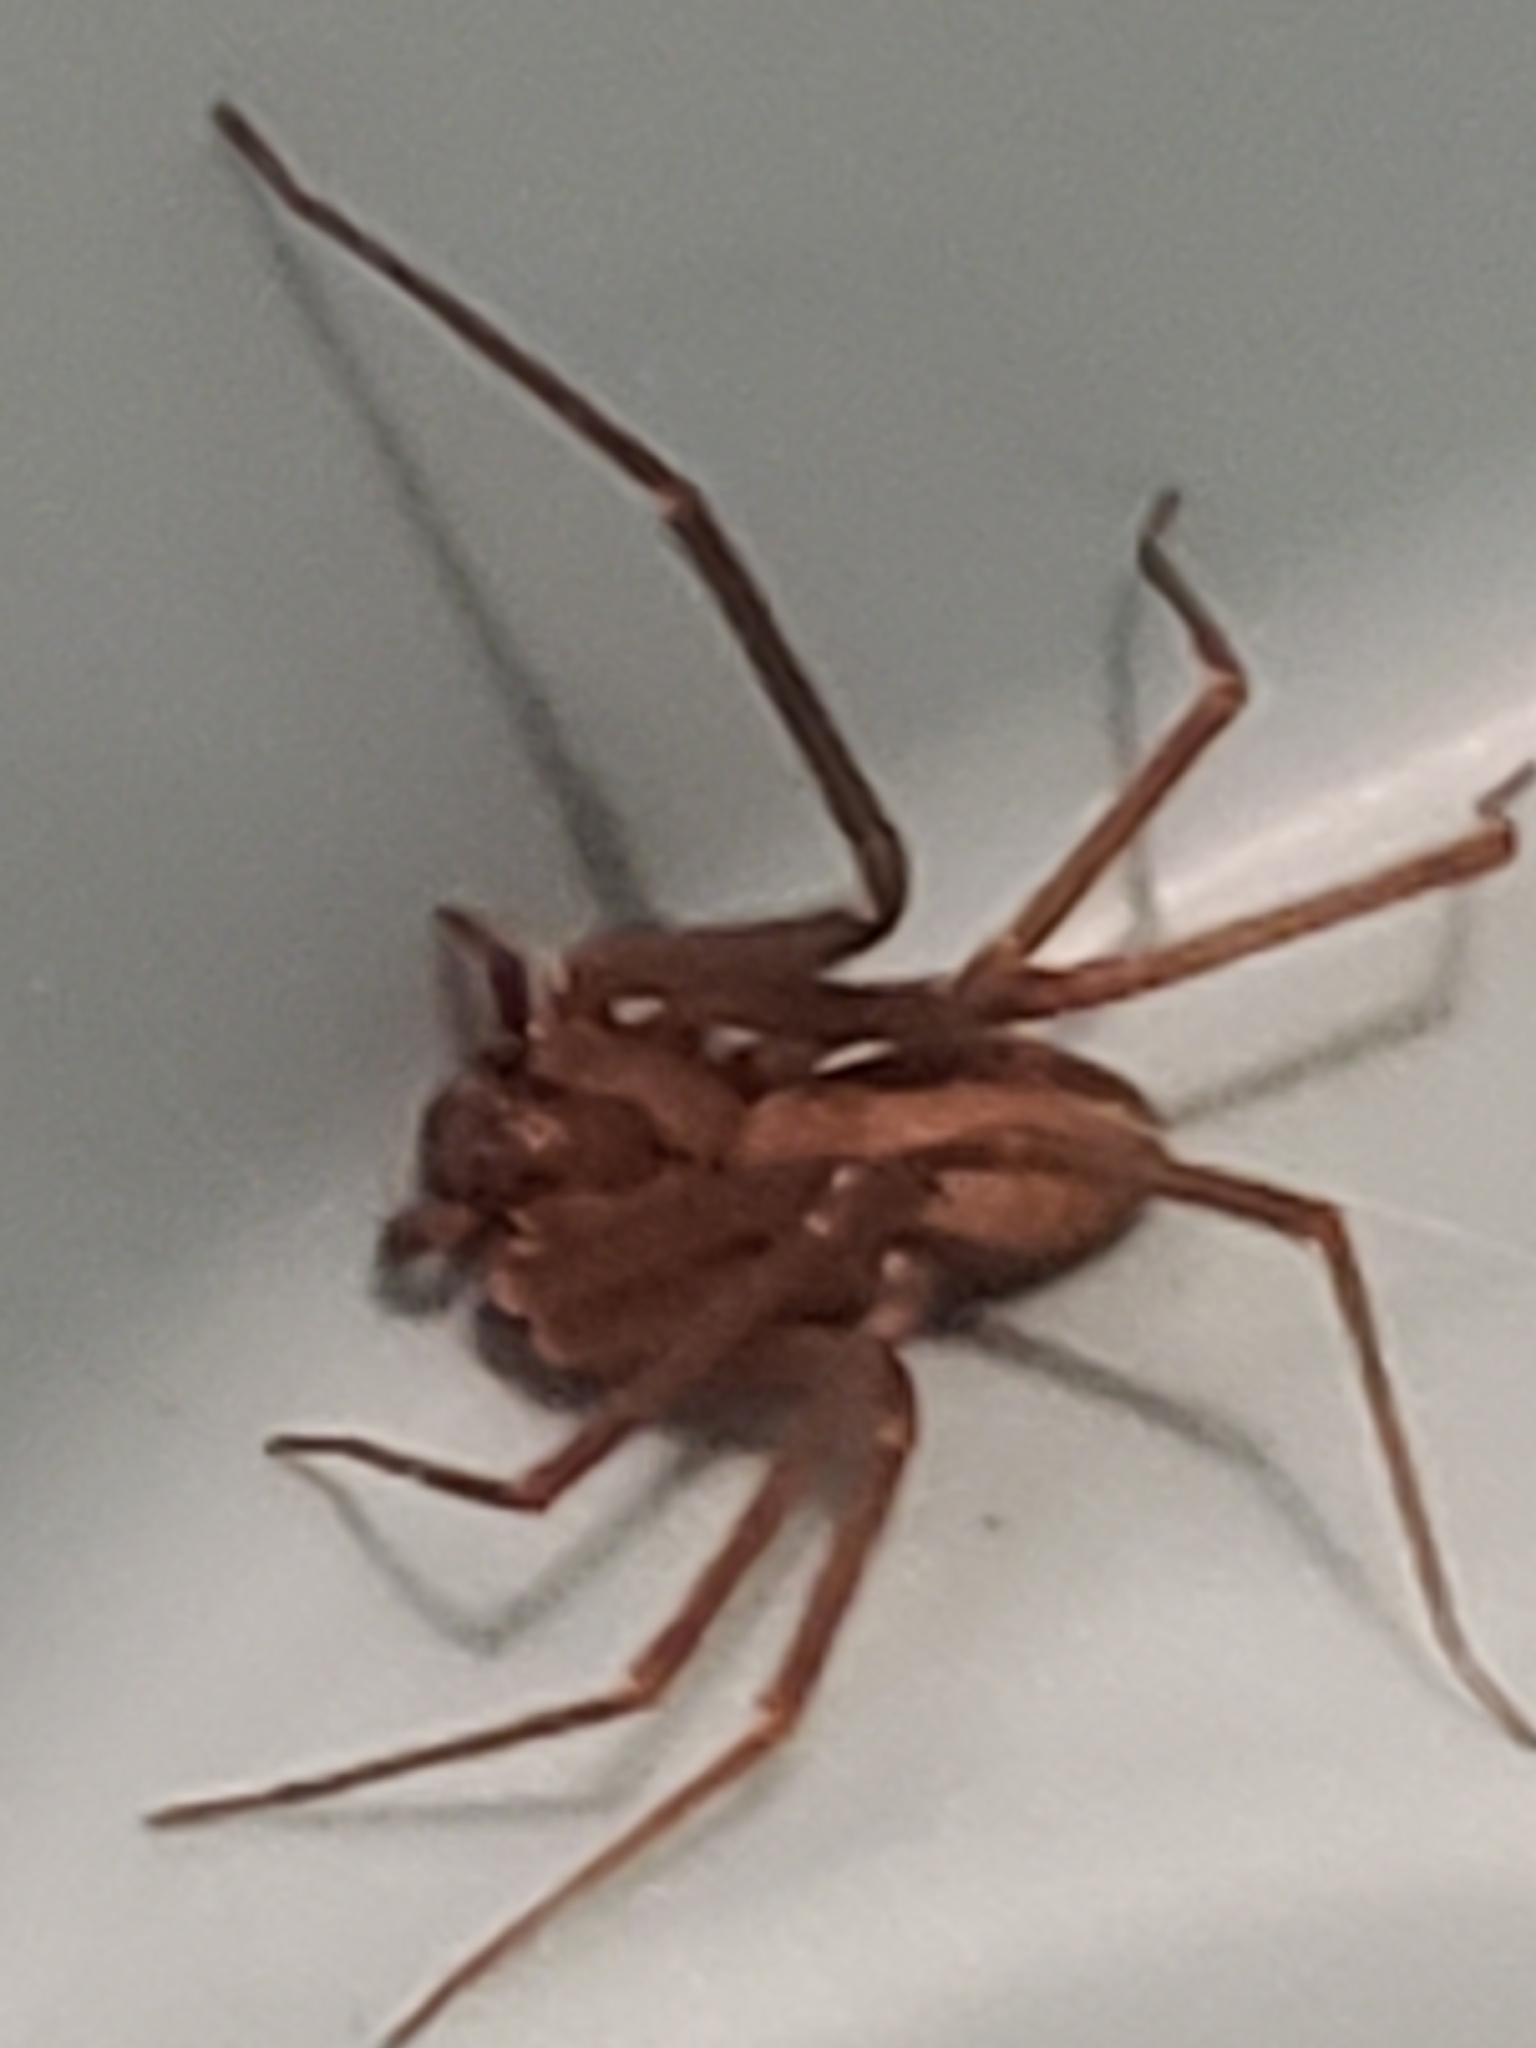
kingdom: Animalia
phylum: Arthropoda
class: Arachnida
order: Araneae
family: Sicariidae
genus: Loxosceles
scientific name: Loxosceles reclusa
